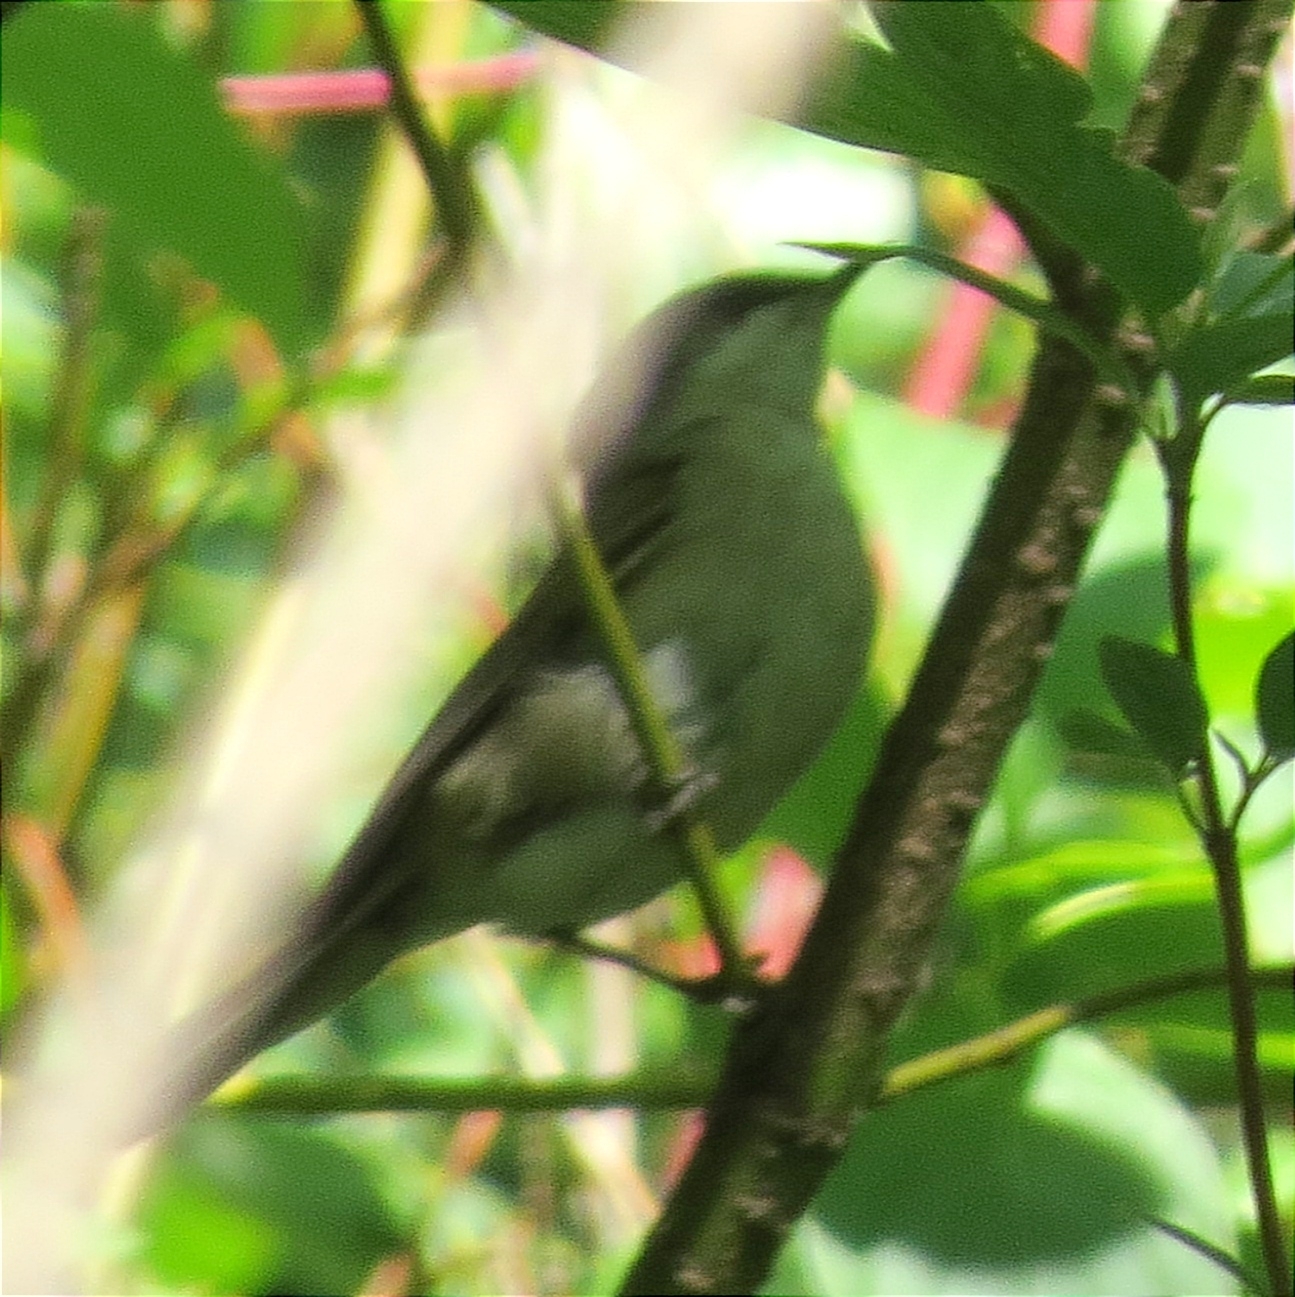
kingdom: Animalia
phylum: Chordata
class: Aves
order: Passeriformes
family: Sylviidae
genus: Sylvia
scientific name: Sylvia curruca
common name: Lesser whitethroat
